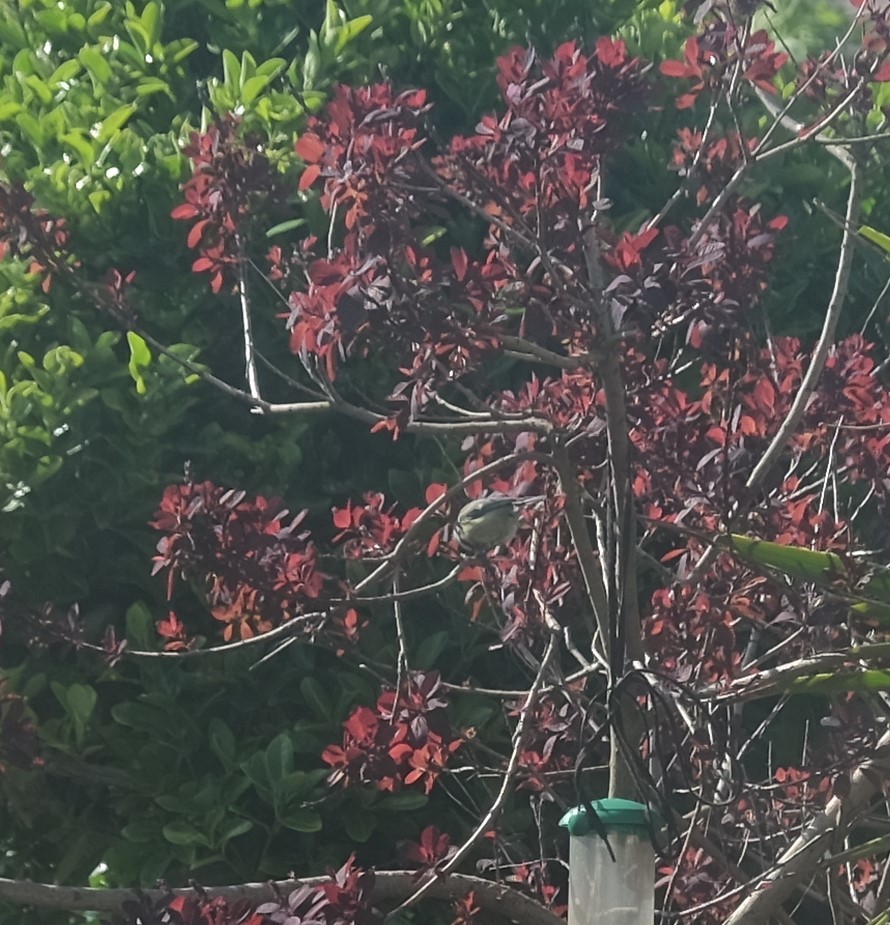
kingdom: Animalia
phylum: Chordata
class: Aves
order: Passeriformes
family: Paridae
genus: Parus
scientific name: Parus major
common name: Great tit
